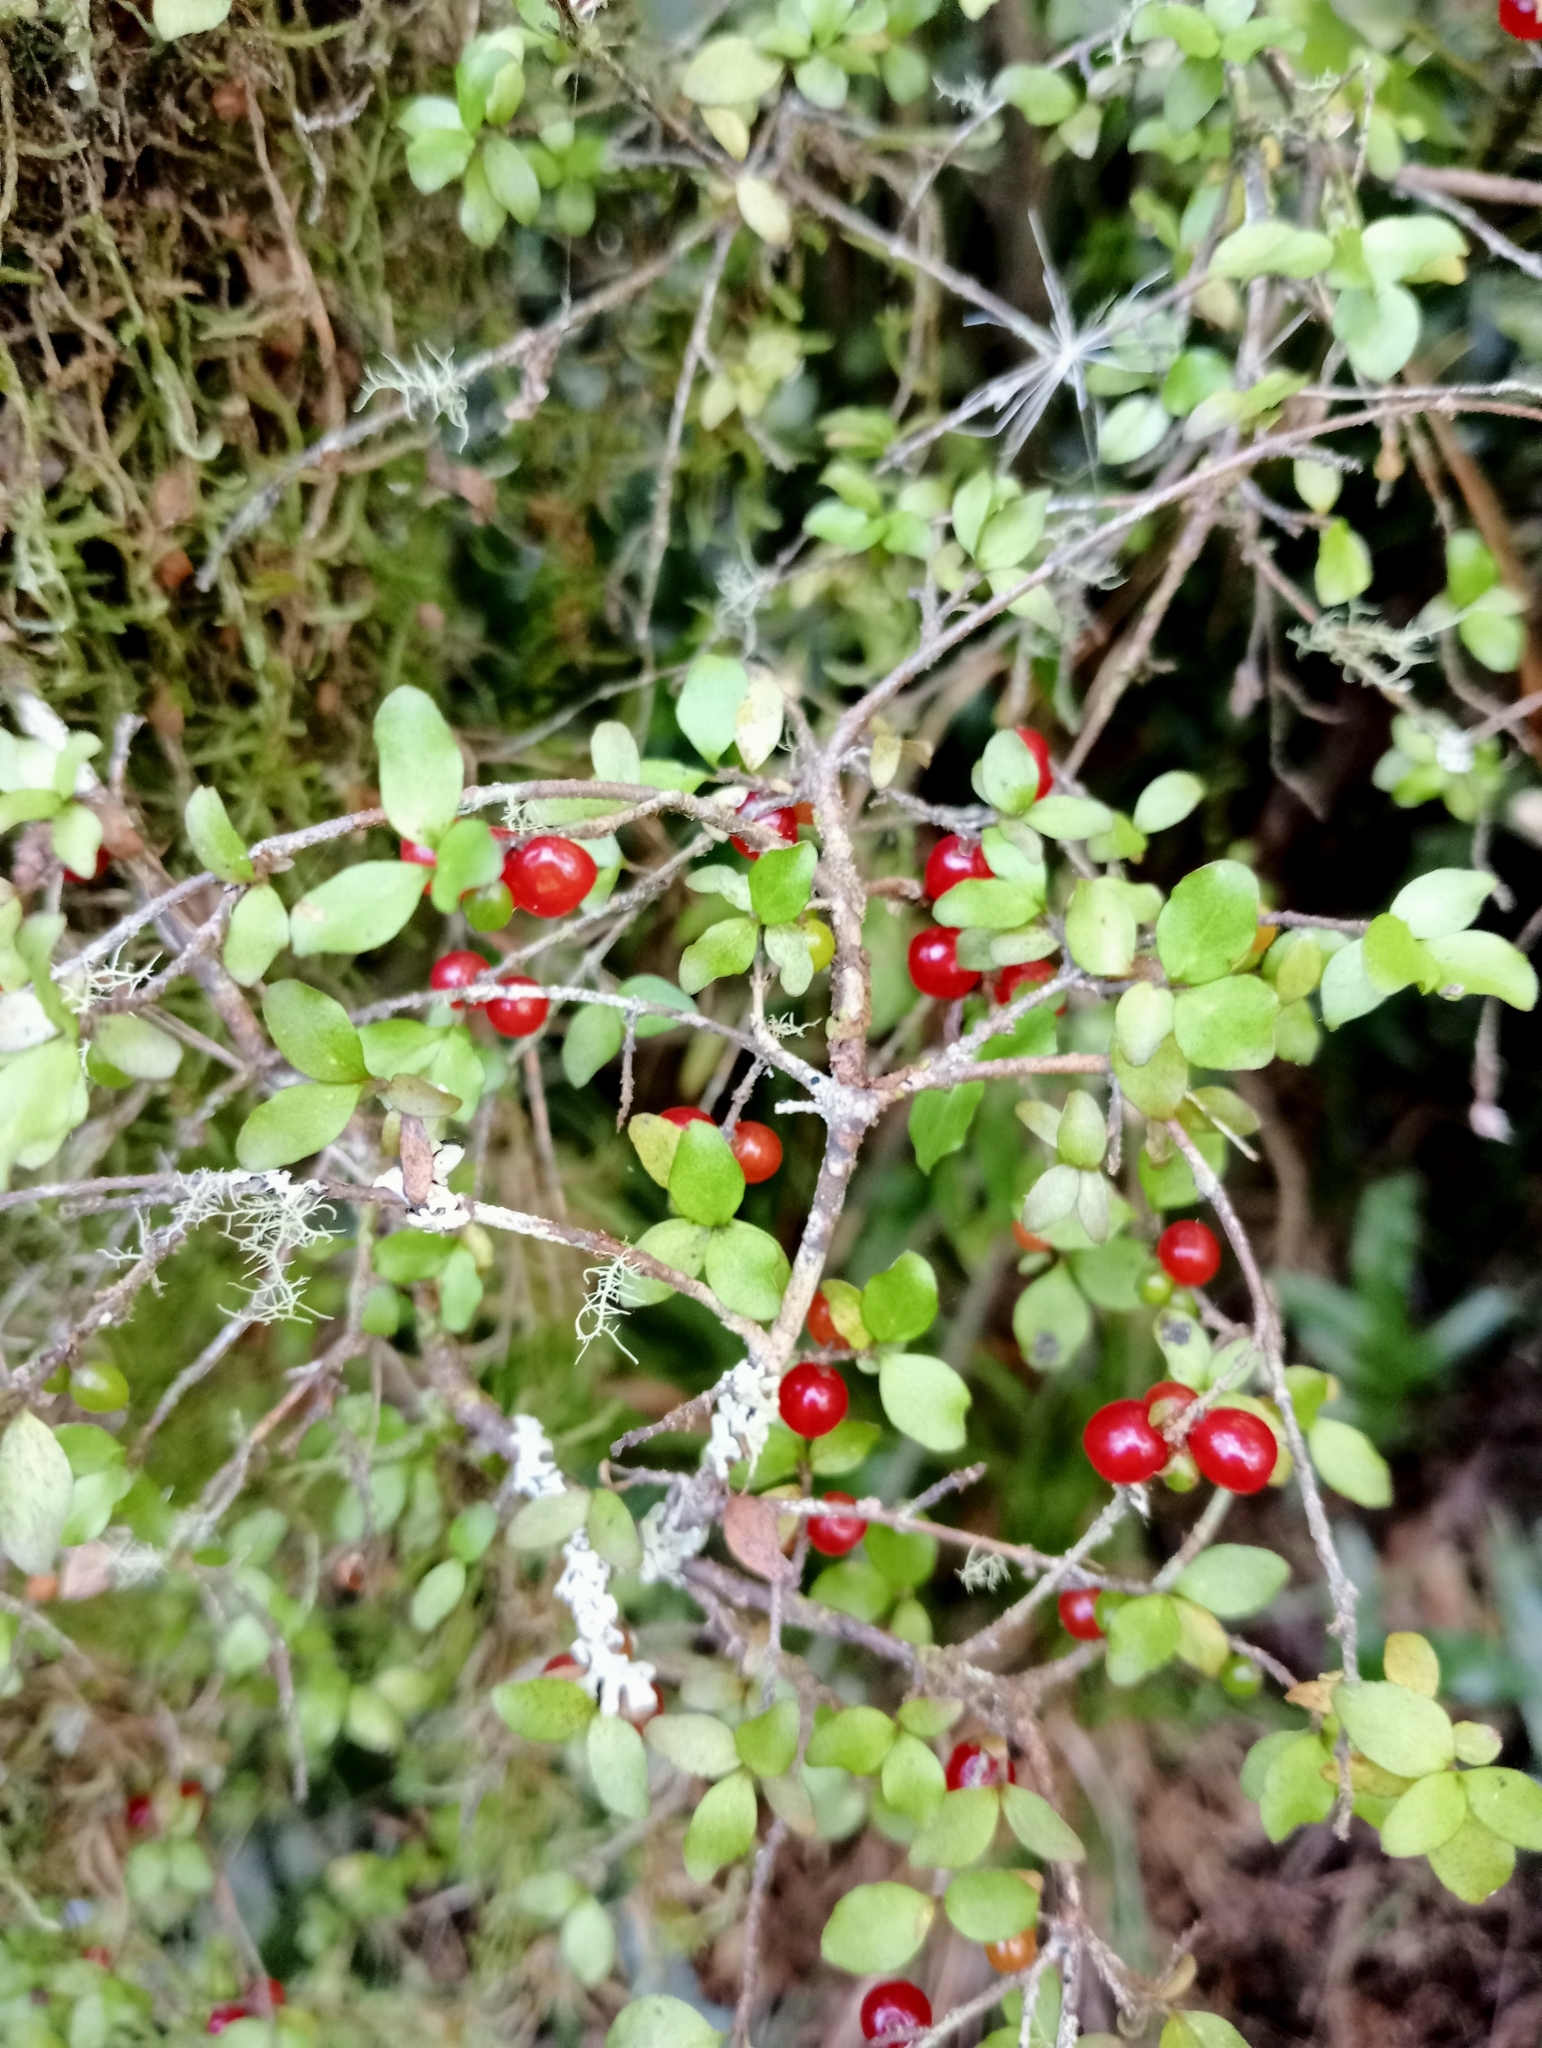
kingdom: Plantae
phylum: Tracheophyta
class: Magnoliopsida
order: Gentianales
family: Rubiaceae
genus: Coprosma
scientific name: Coprosma rhamnoides
